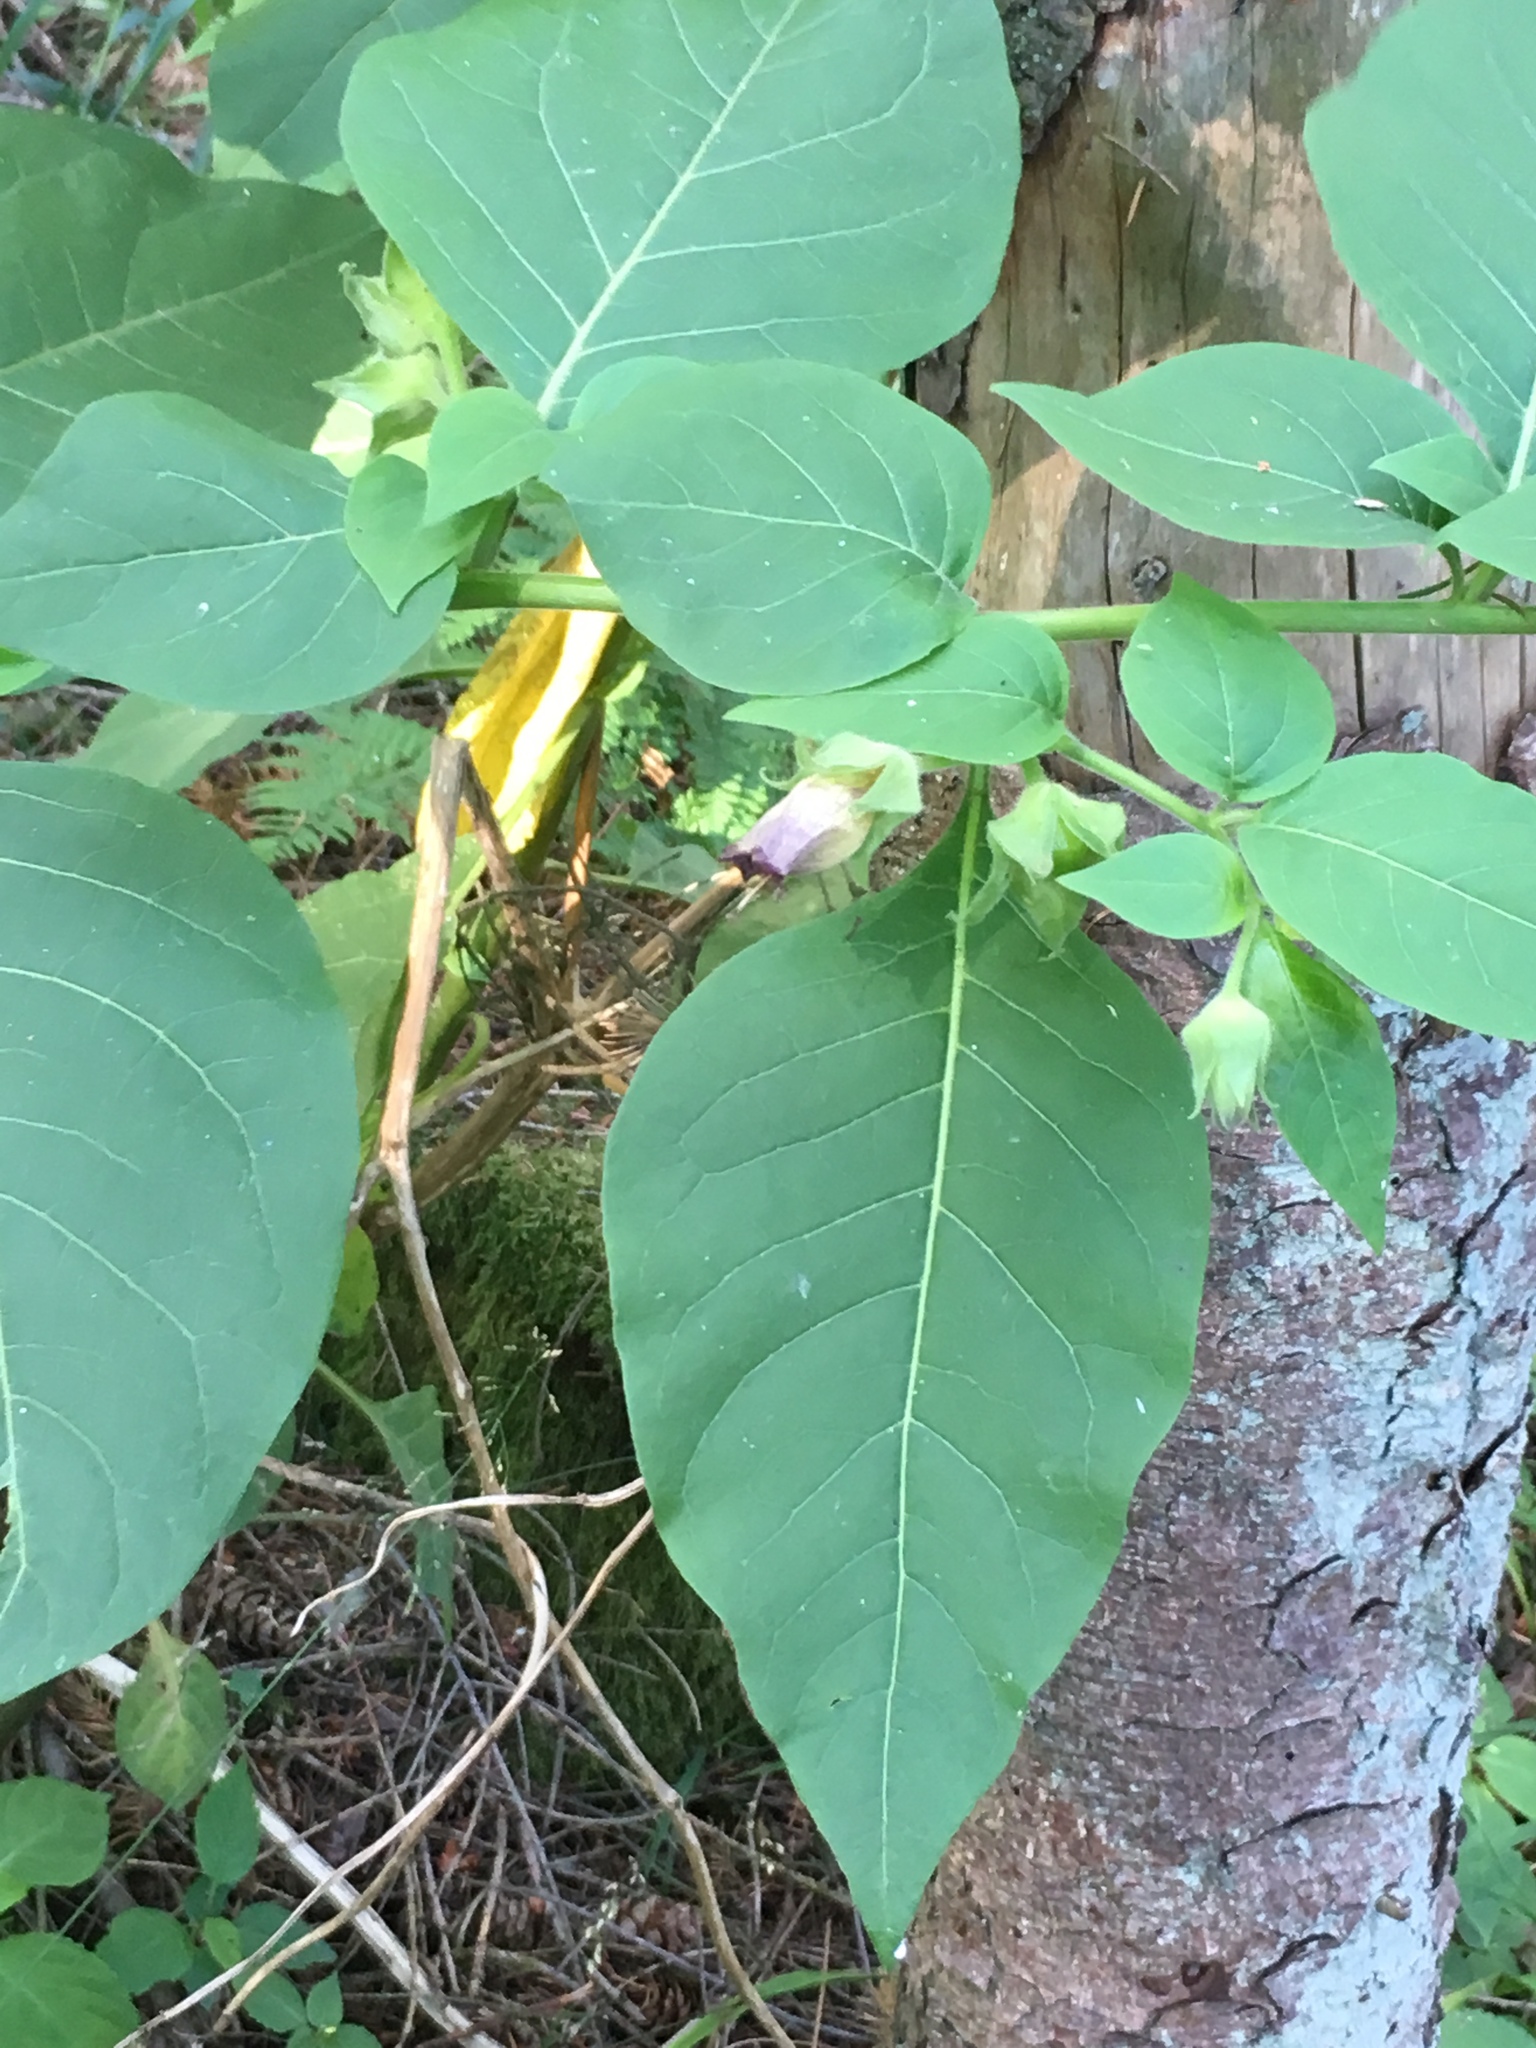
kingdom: Plantae
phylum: Tracheophyta
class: Magnoliopsida
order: Solanales
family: Solanaceae
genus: Atropa
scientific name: Atropa belladonna
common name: Deadly nightshade
